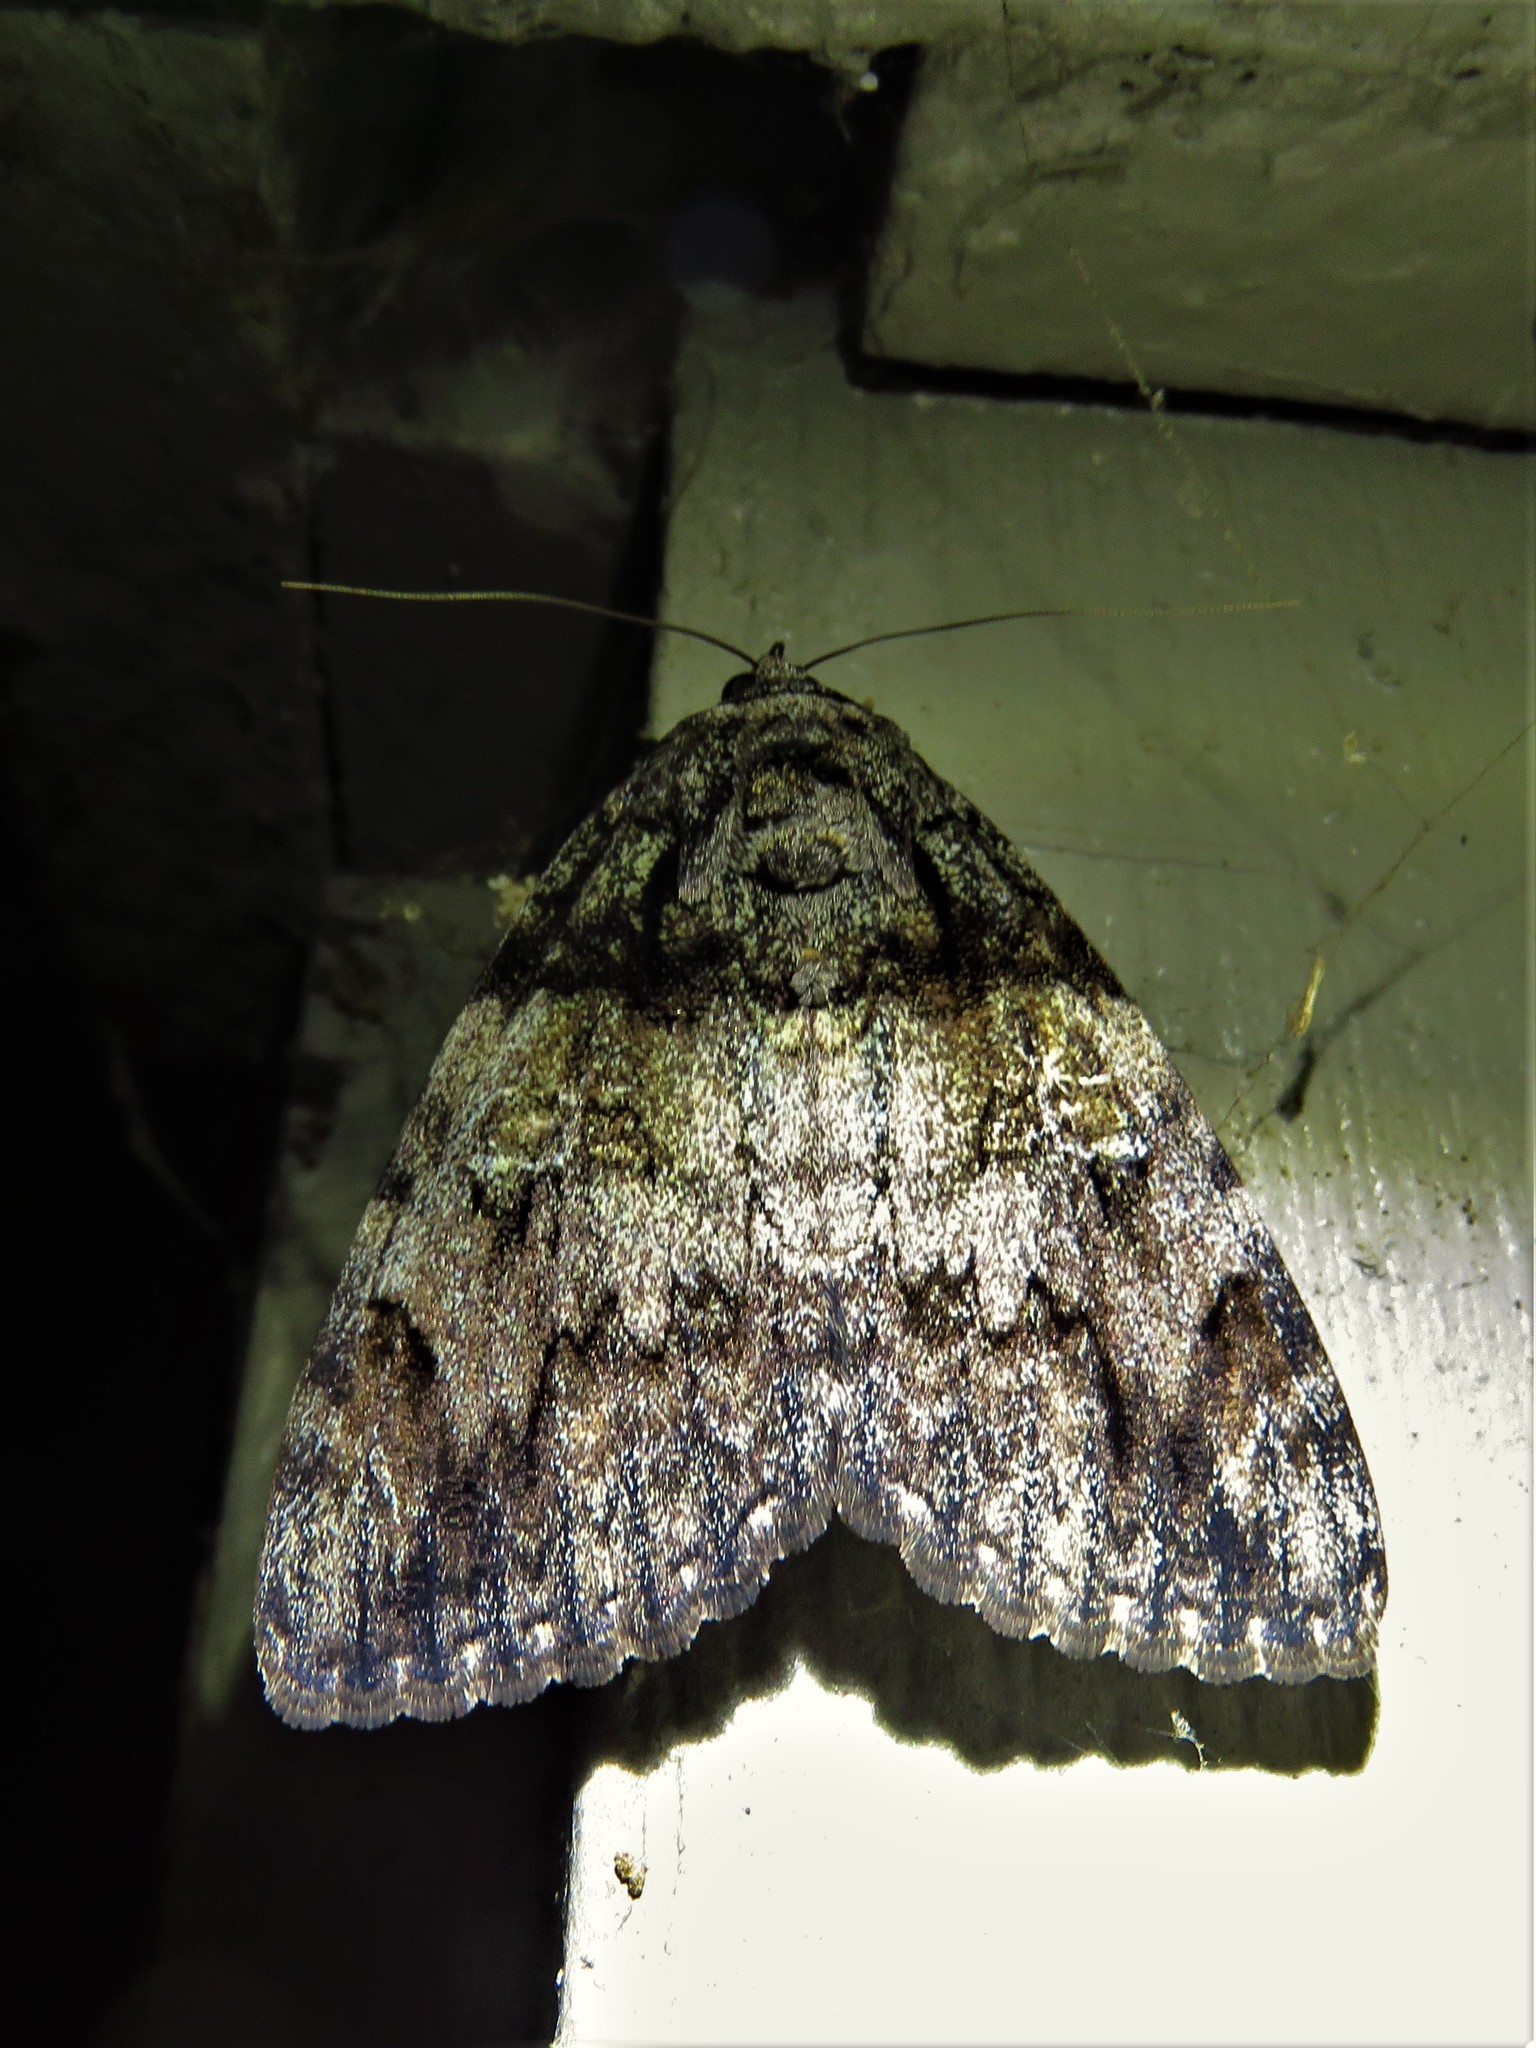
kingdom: Animalia
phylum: Arthropoda
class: Insecta
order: Lepidoptera
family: Erebidae
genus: Catocala
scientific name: Catocala ilia
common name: Ilia underwing
